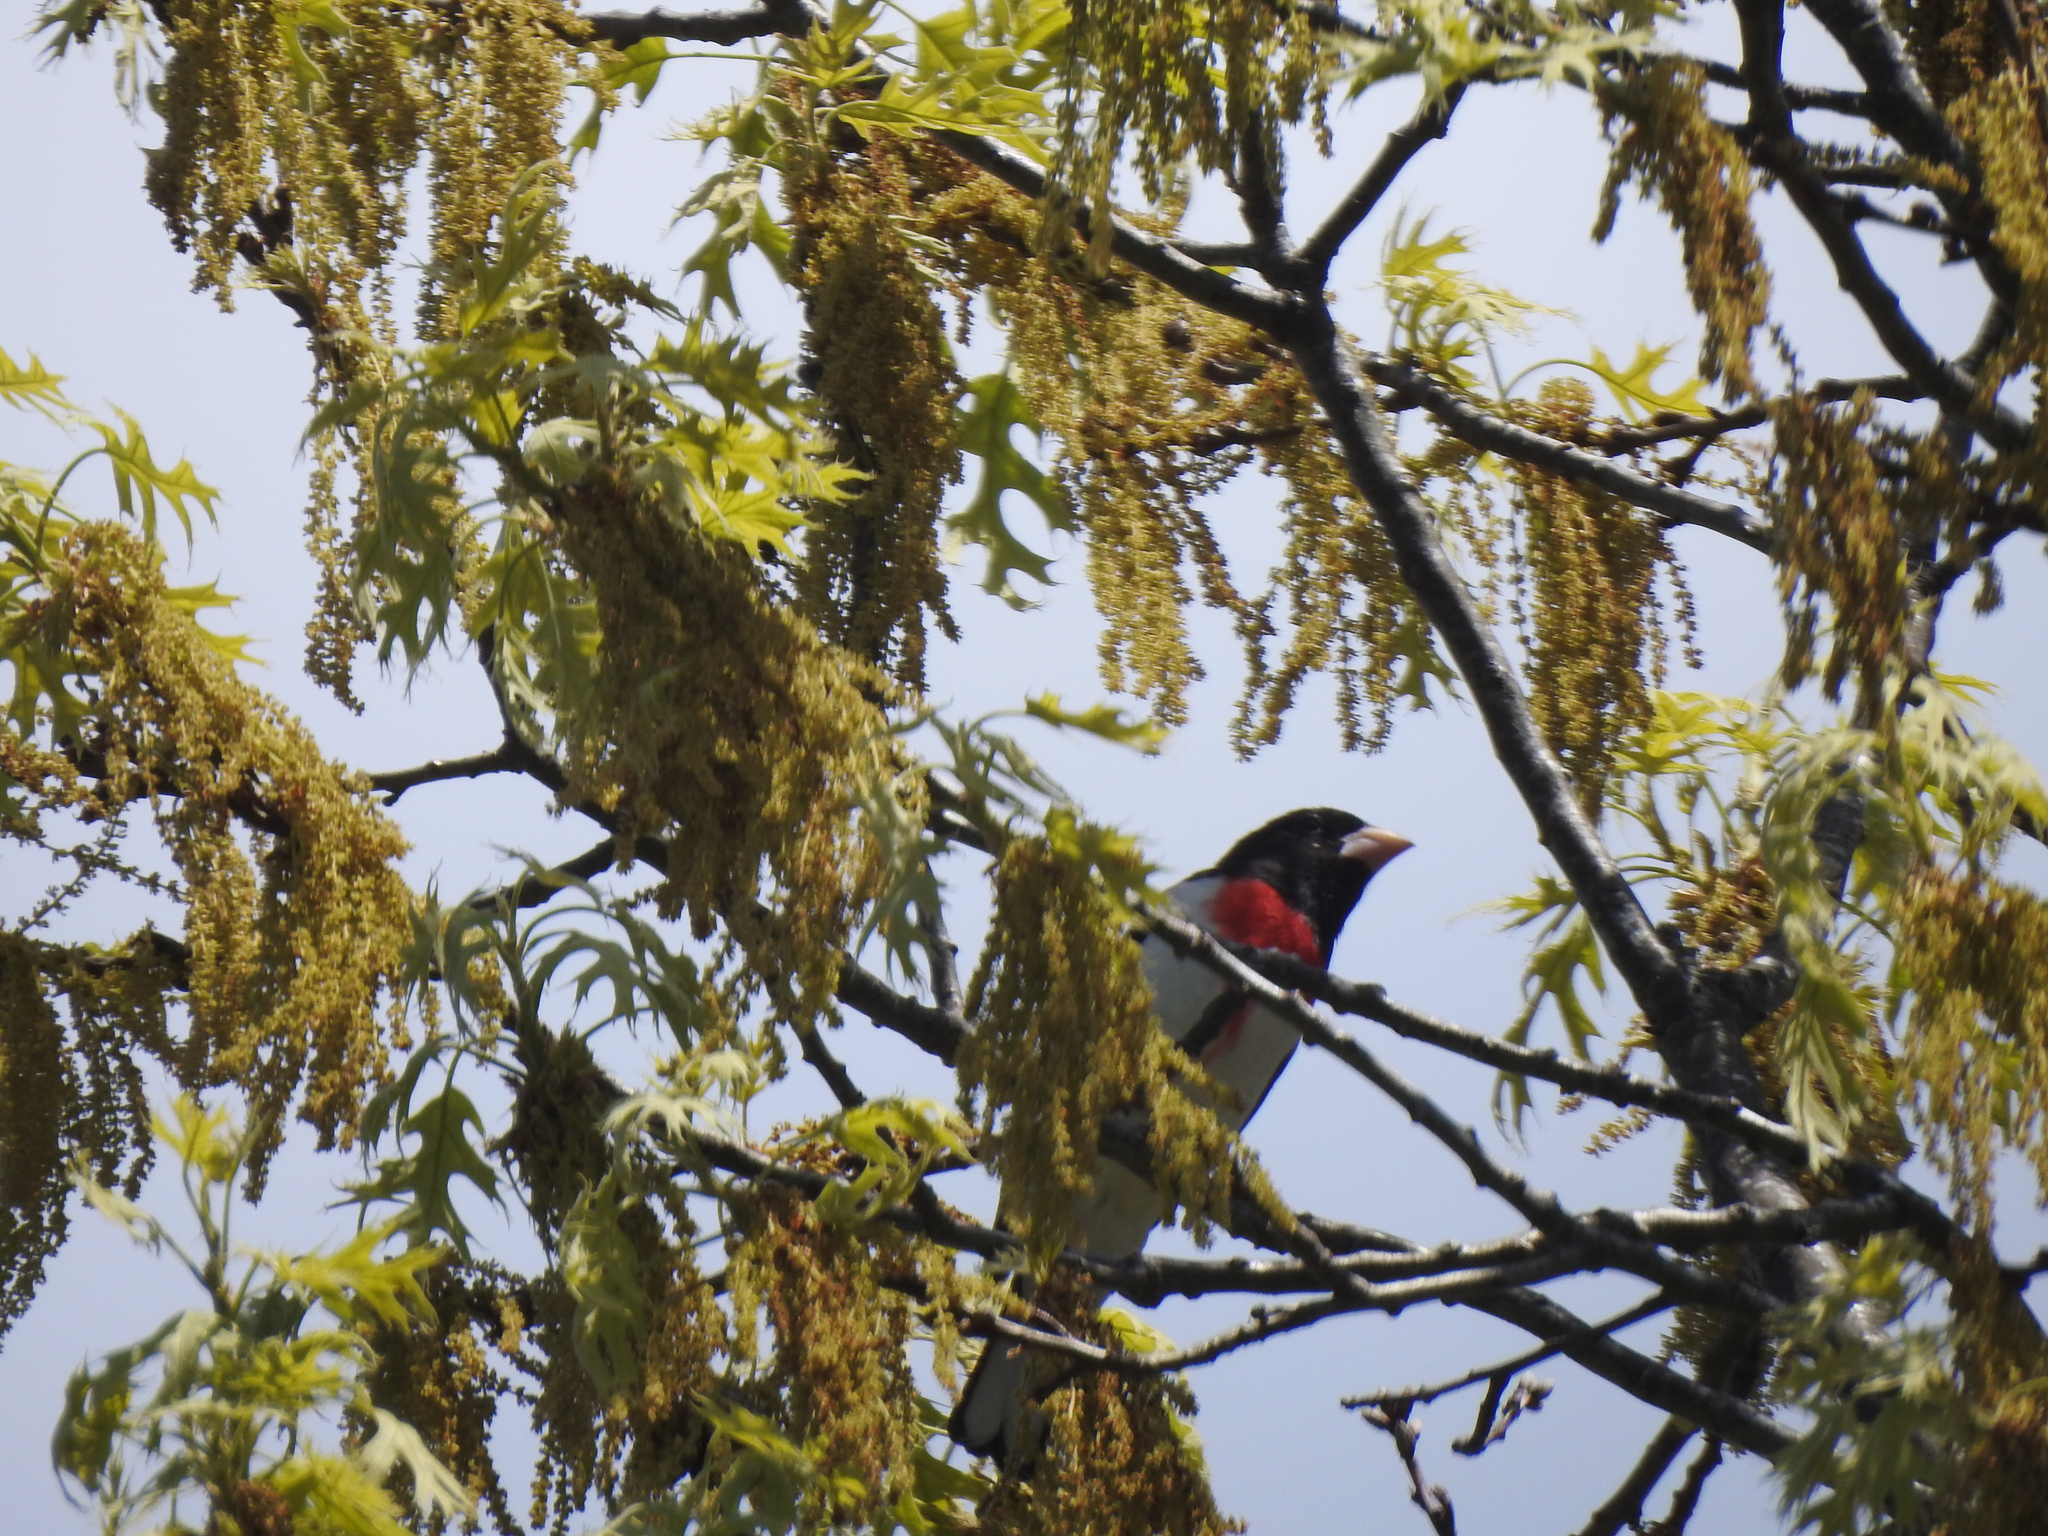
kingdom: Animalia
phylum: Chordata
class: Aves
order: Passeriformes
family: Cardinalidae
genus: Pheucticus
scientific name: Pheucticus ludovicianus
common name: Rose-breasted grosbeak
